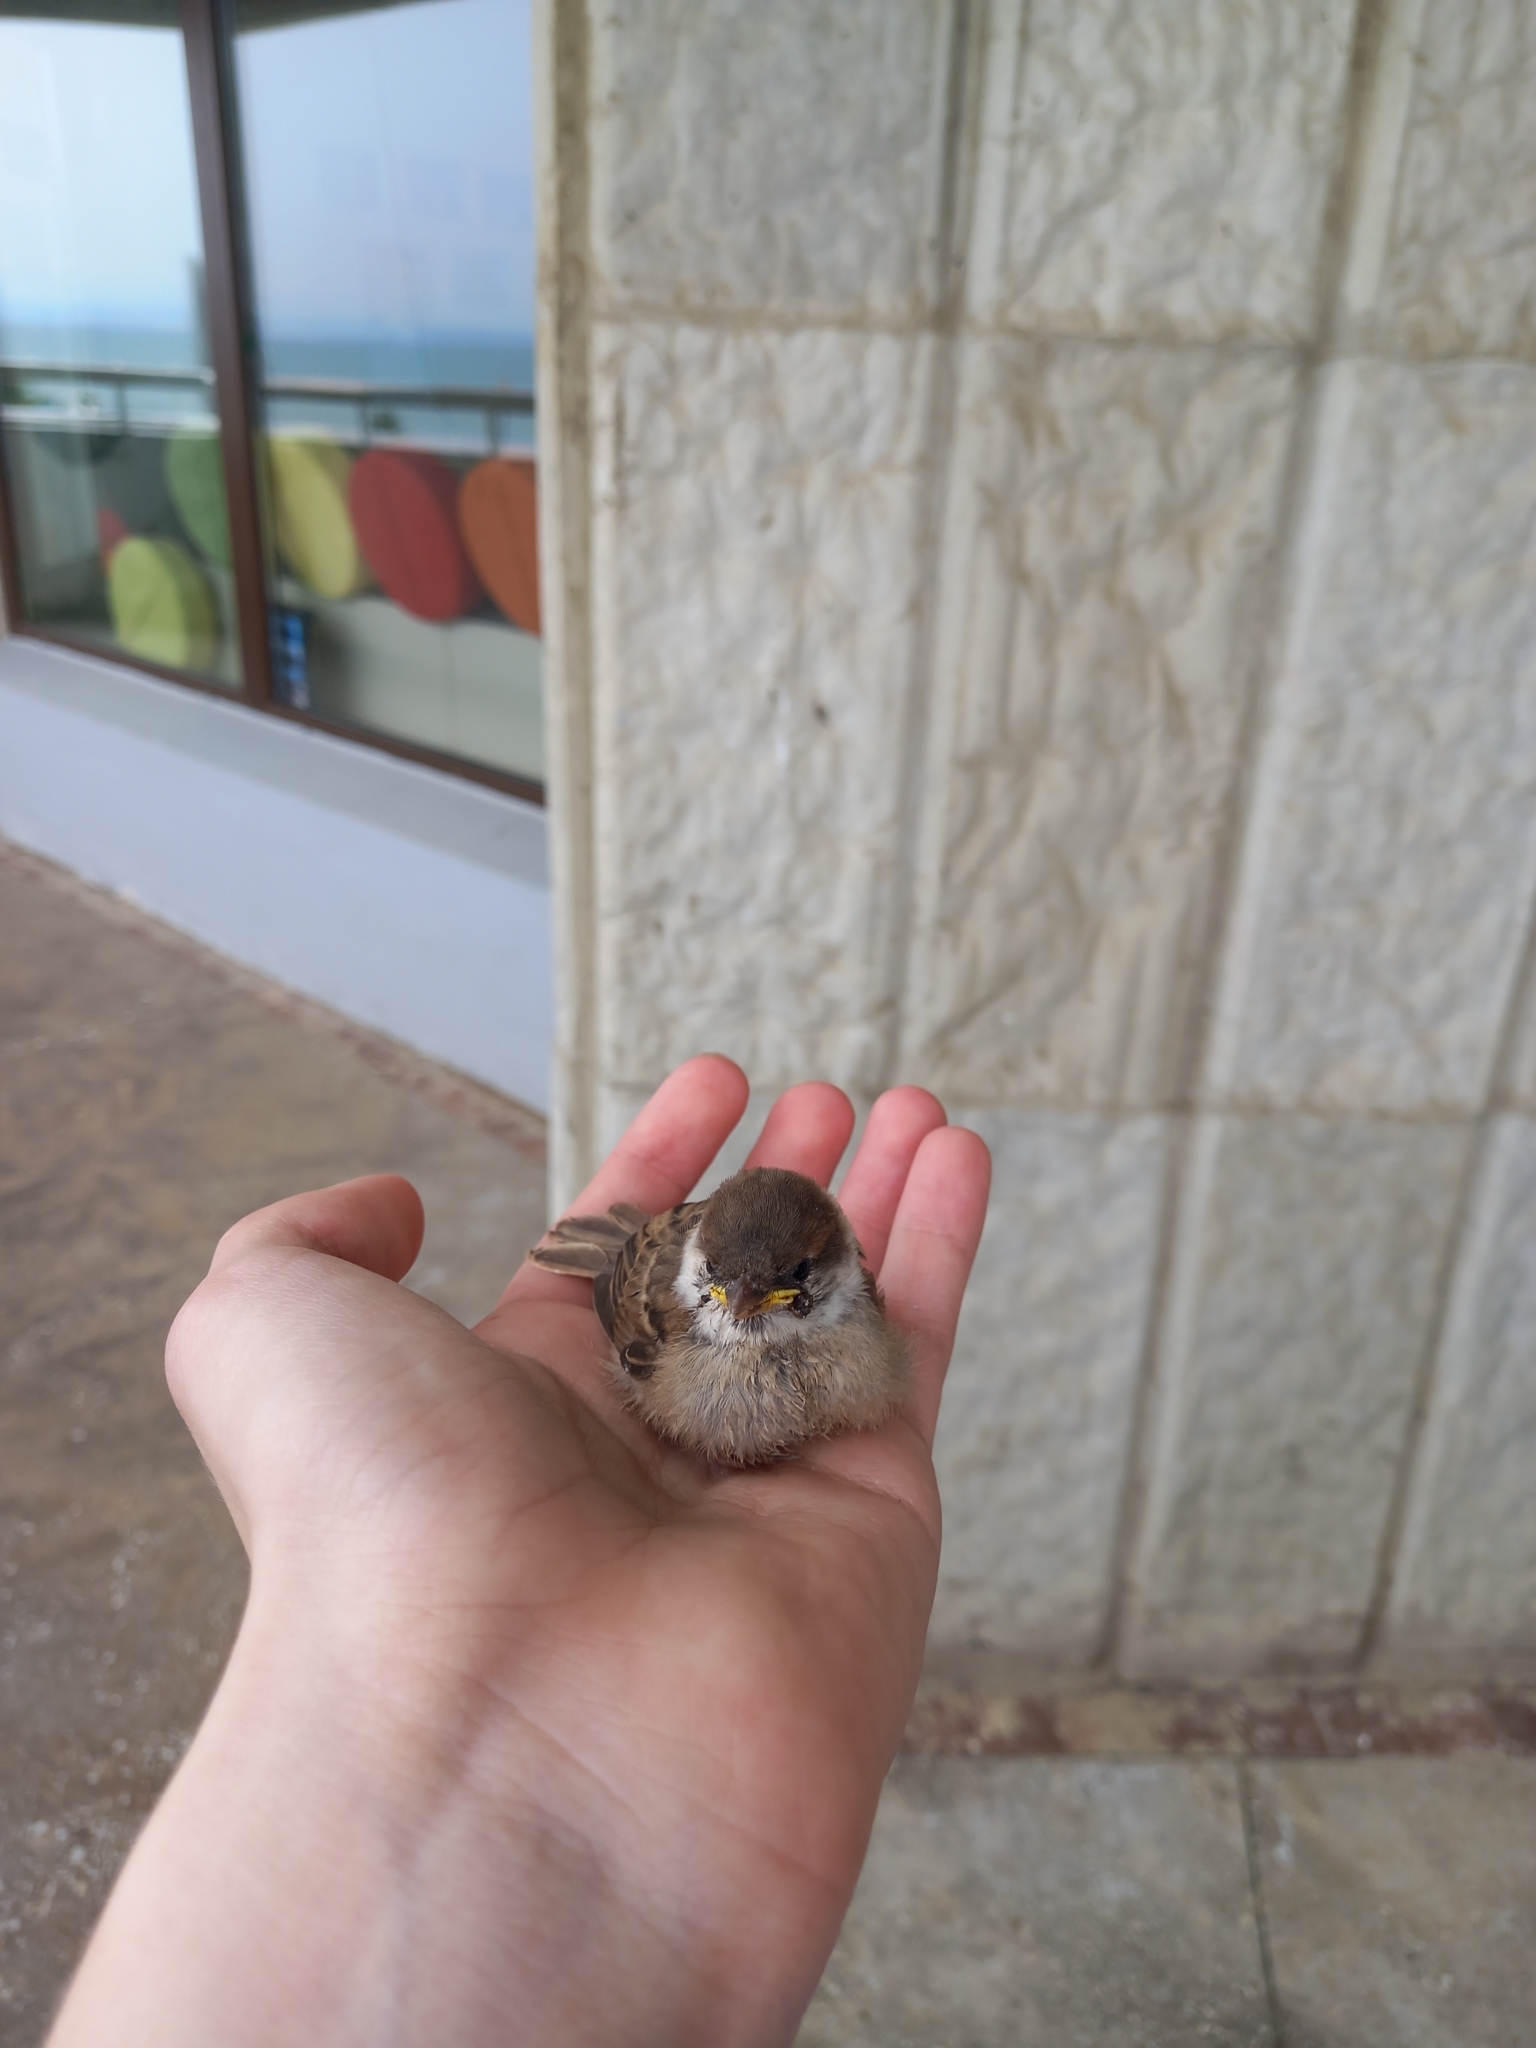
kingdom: Animalia
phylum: Chordata
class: Aves
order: Passeriformes
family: Passeridae
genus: Passer
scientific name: Passer montanus
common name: Eurasian tree sparrow
